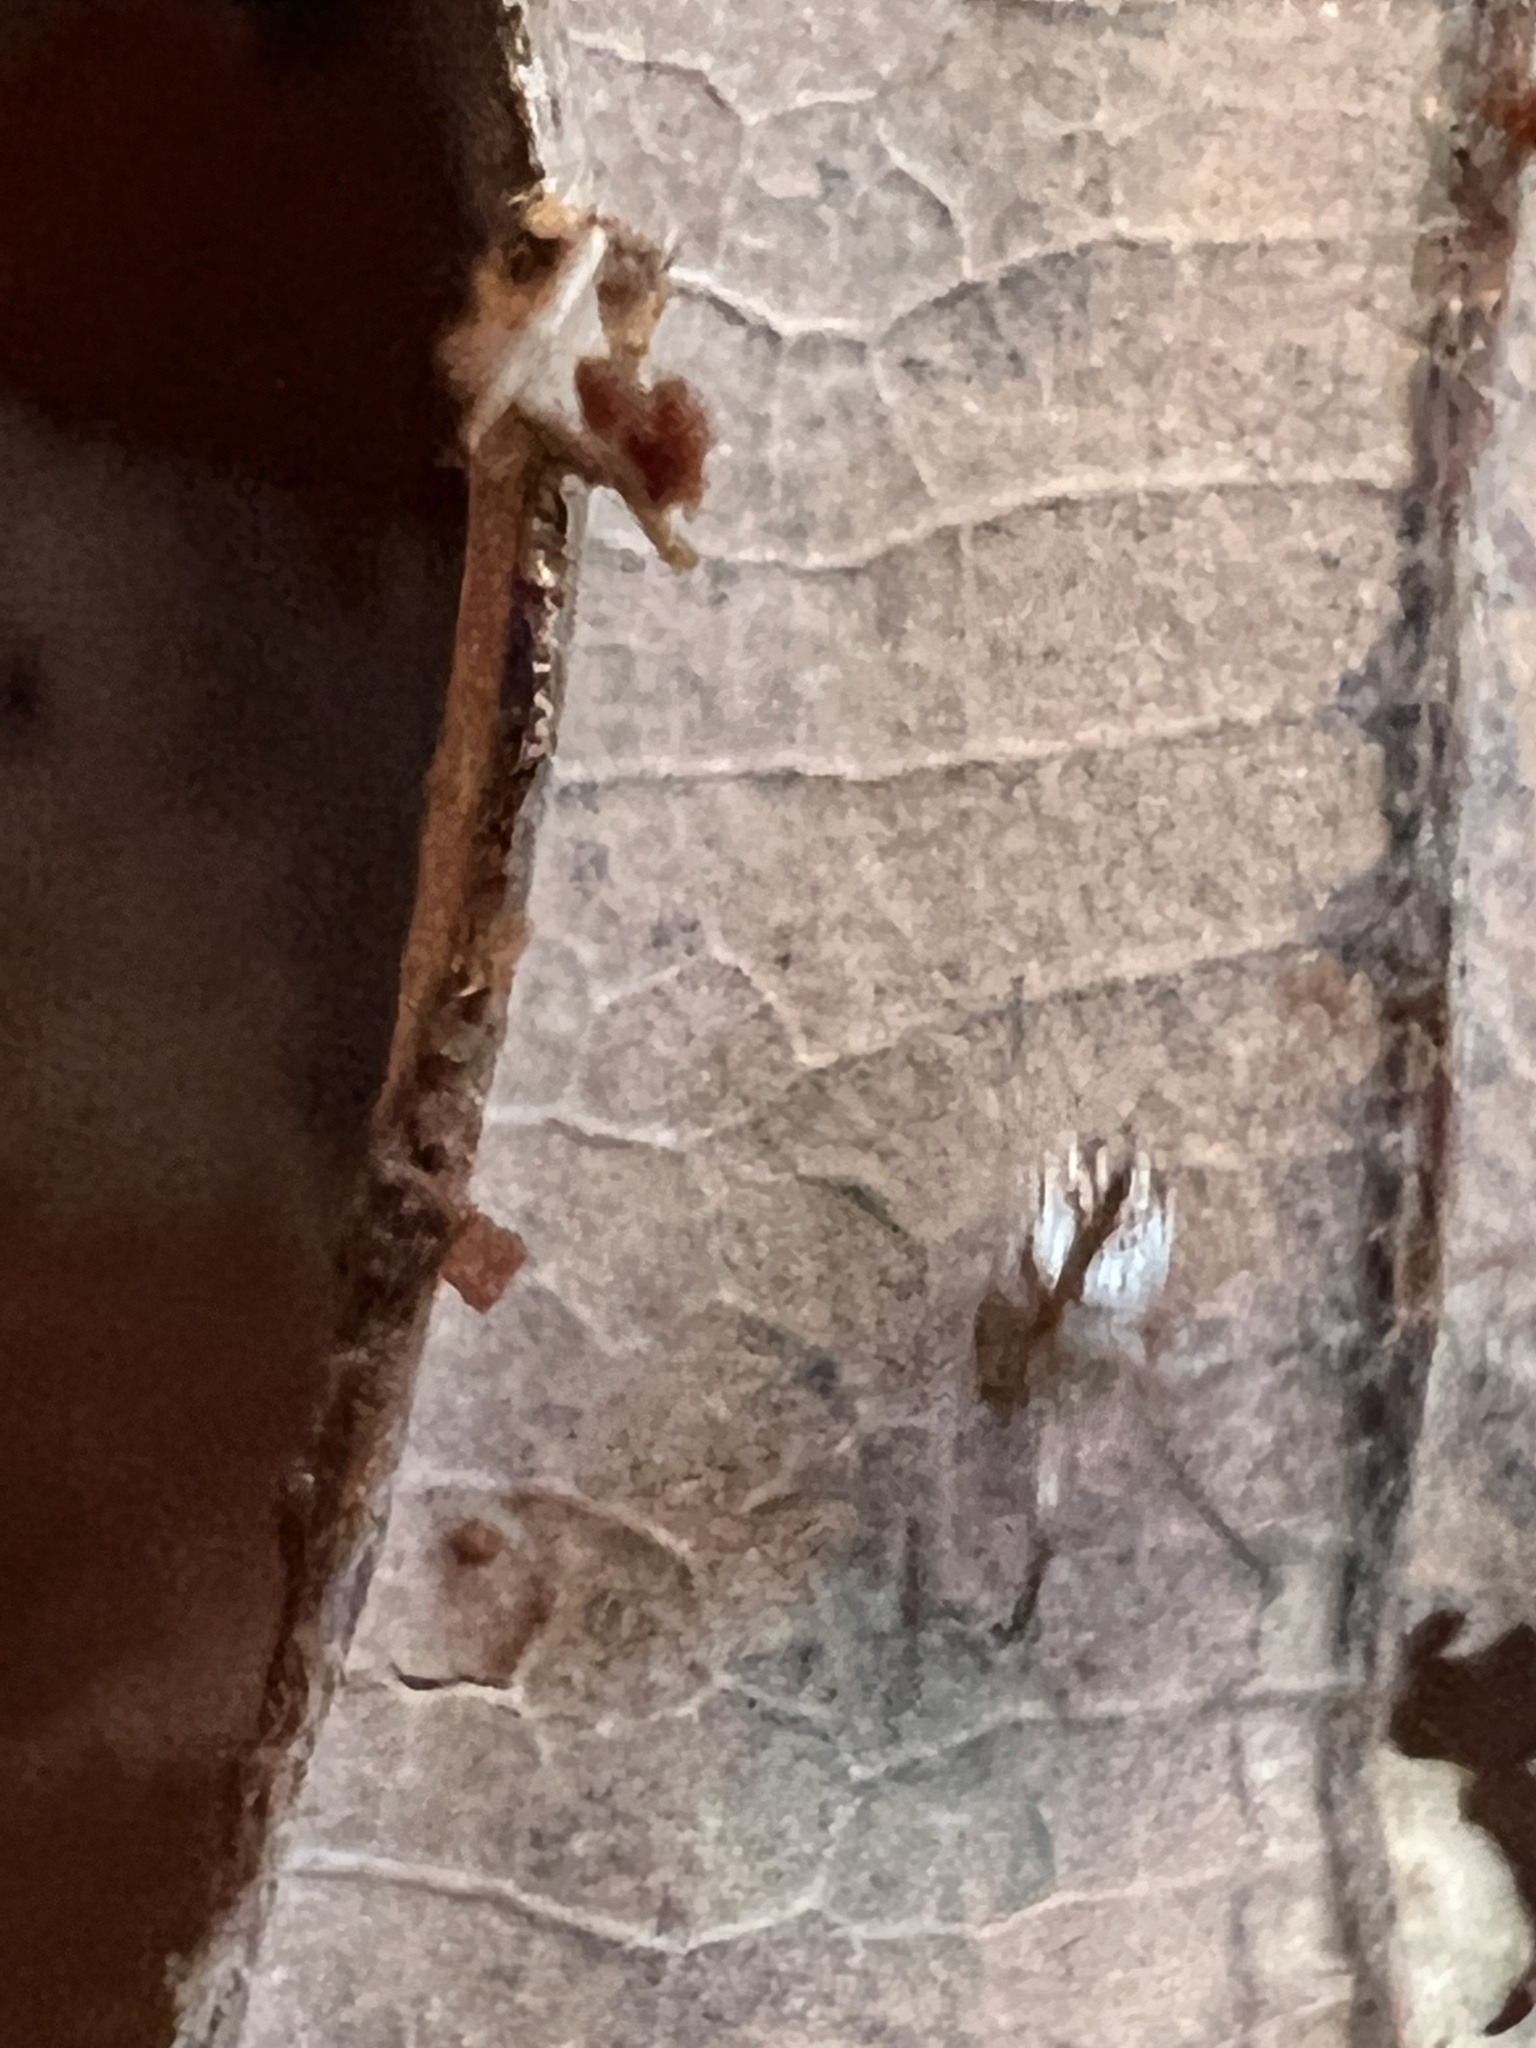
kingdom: Animalia
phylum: Arthropoda
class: Arachnida
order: Araneae
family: Tetragnathidae
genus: Leucauge
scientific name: Leucauge venusta
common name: Longjawed orb weavers
